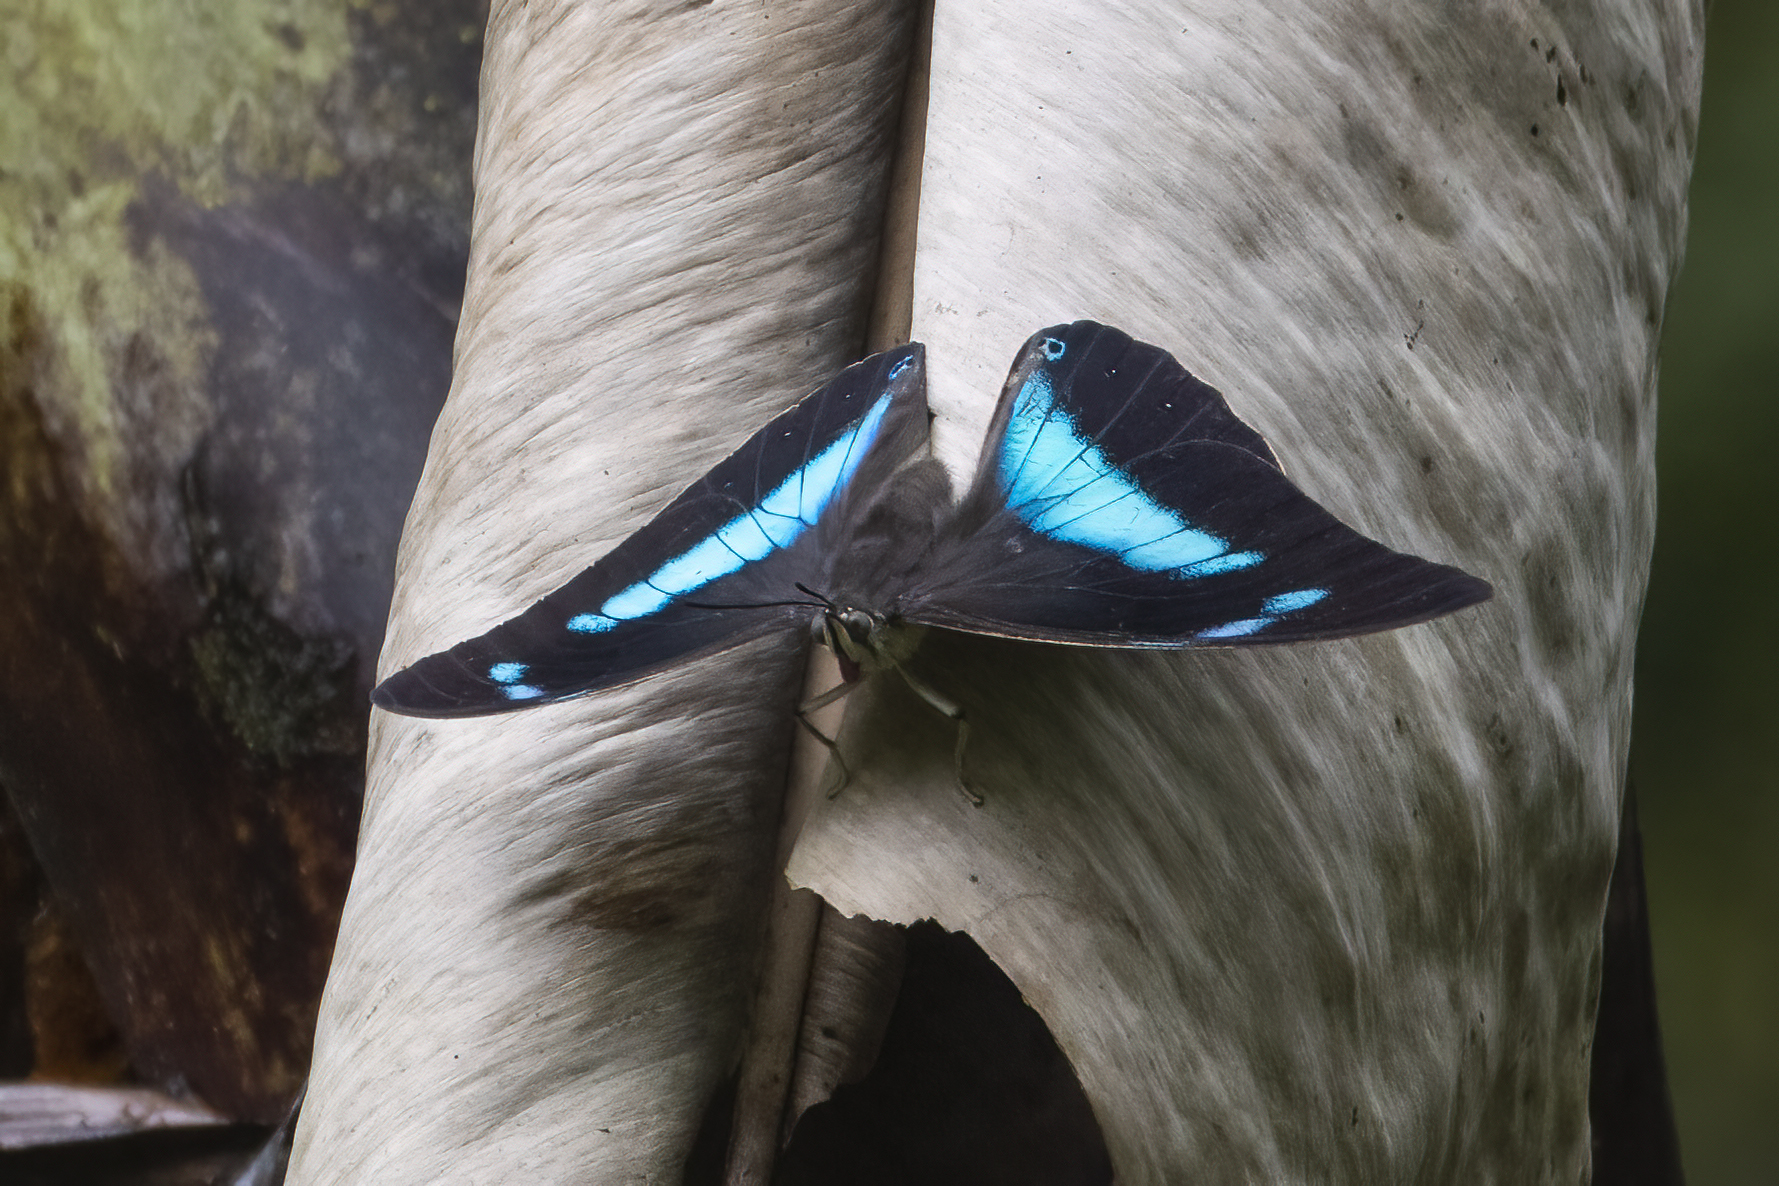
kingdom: Animalia
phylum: Arthropoda
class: Insecta
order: Lepidoptera
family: Nymphalidae
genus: Prepona
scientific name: Prepona demophon
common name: One-spotted prepona
